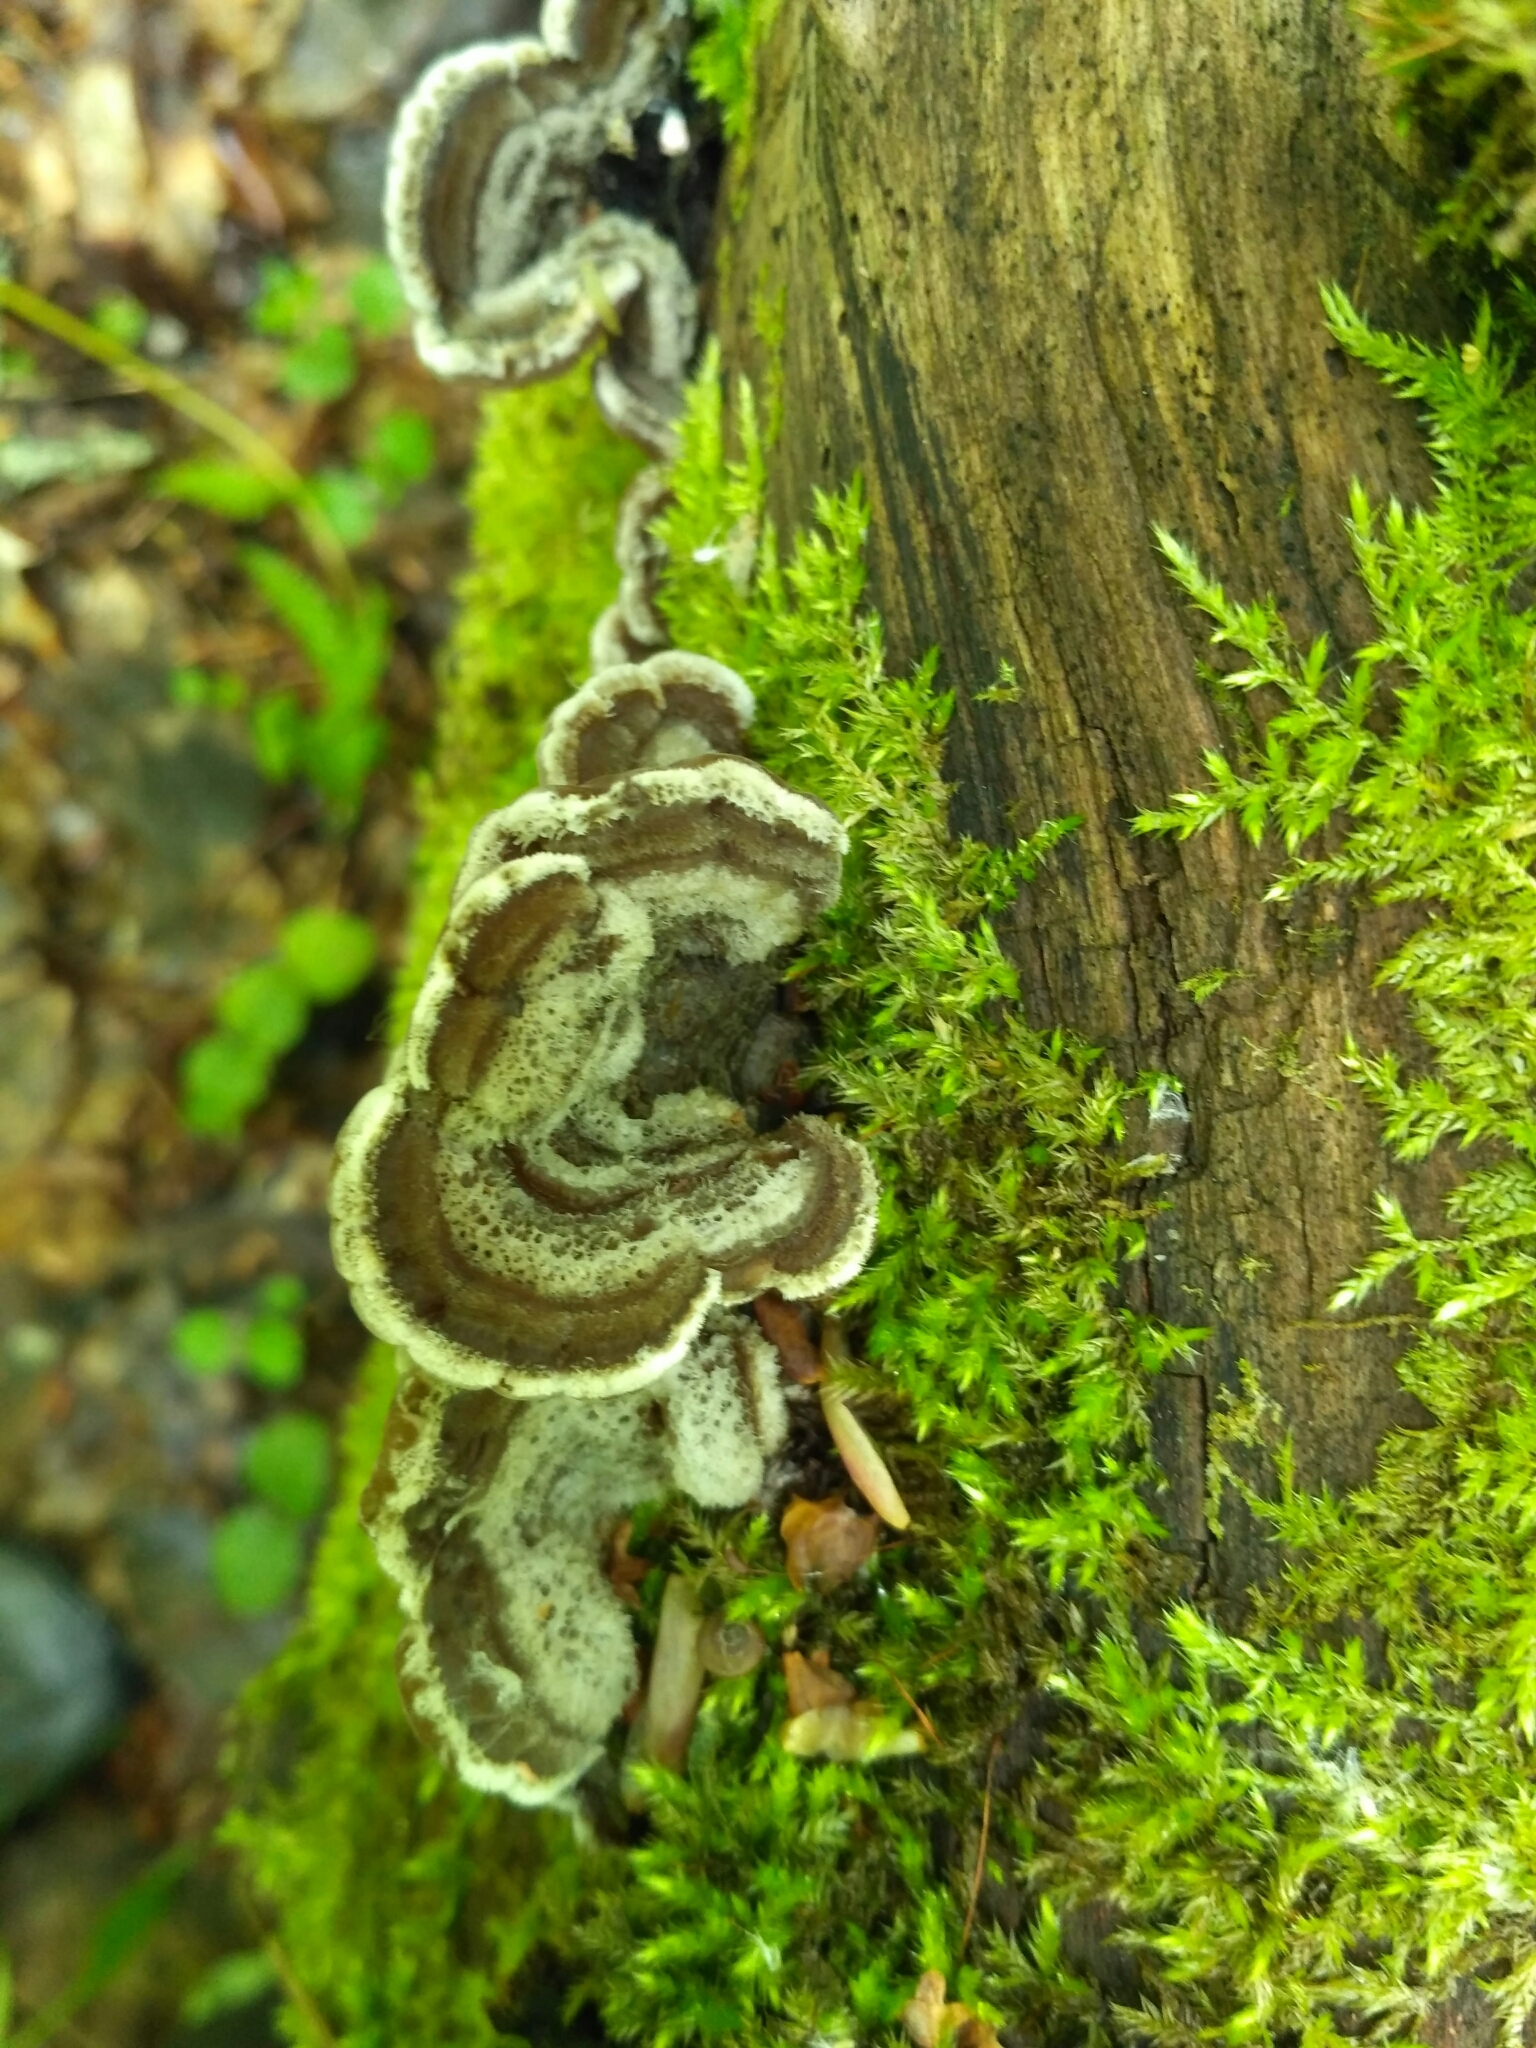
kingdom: Fungi
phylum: Basidiomycota
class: Agaricomycetes
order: Auriculariales
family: Auriculariaceae
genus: Auricularia
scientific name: Auricularia mesenterica
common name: Tripe fungus
